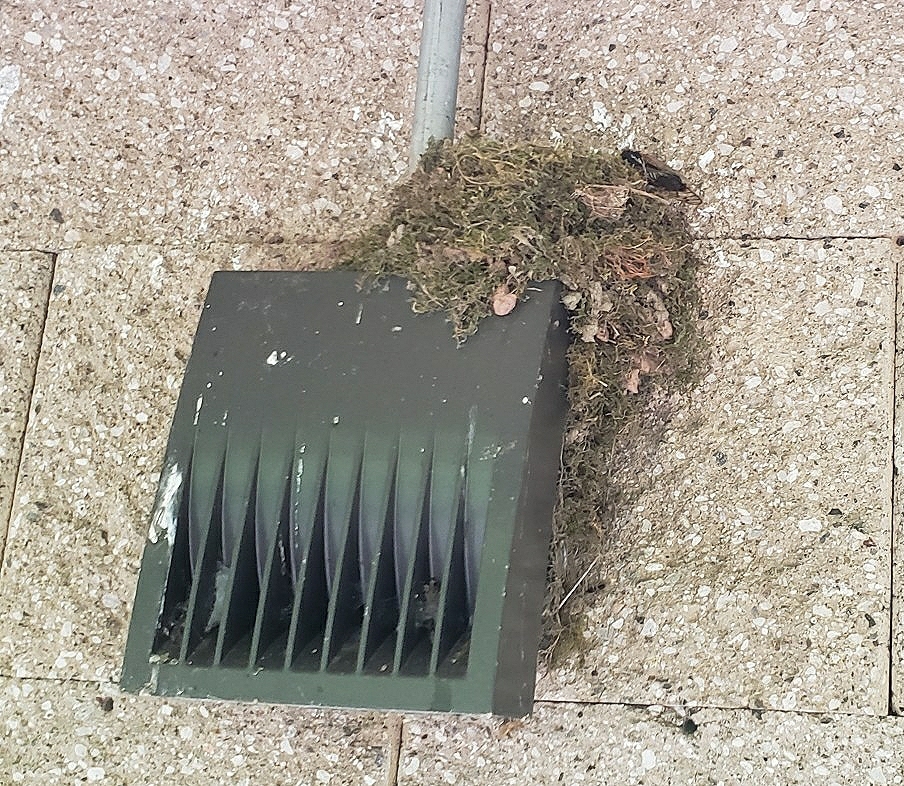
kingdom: Animalia
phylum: Chordata
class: Aves
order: Passeriformes
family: Tyrannidae
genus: Sayornis
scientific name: Sayornis phoebe
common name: Eastern phoebe
